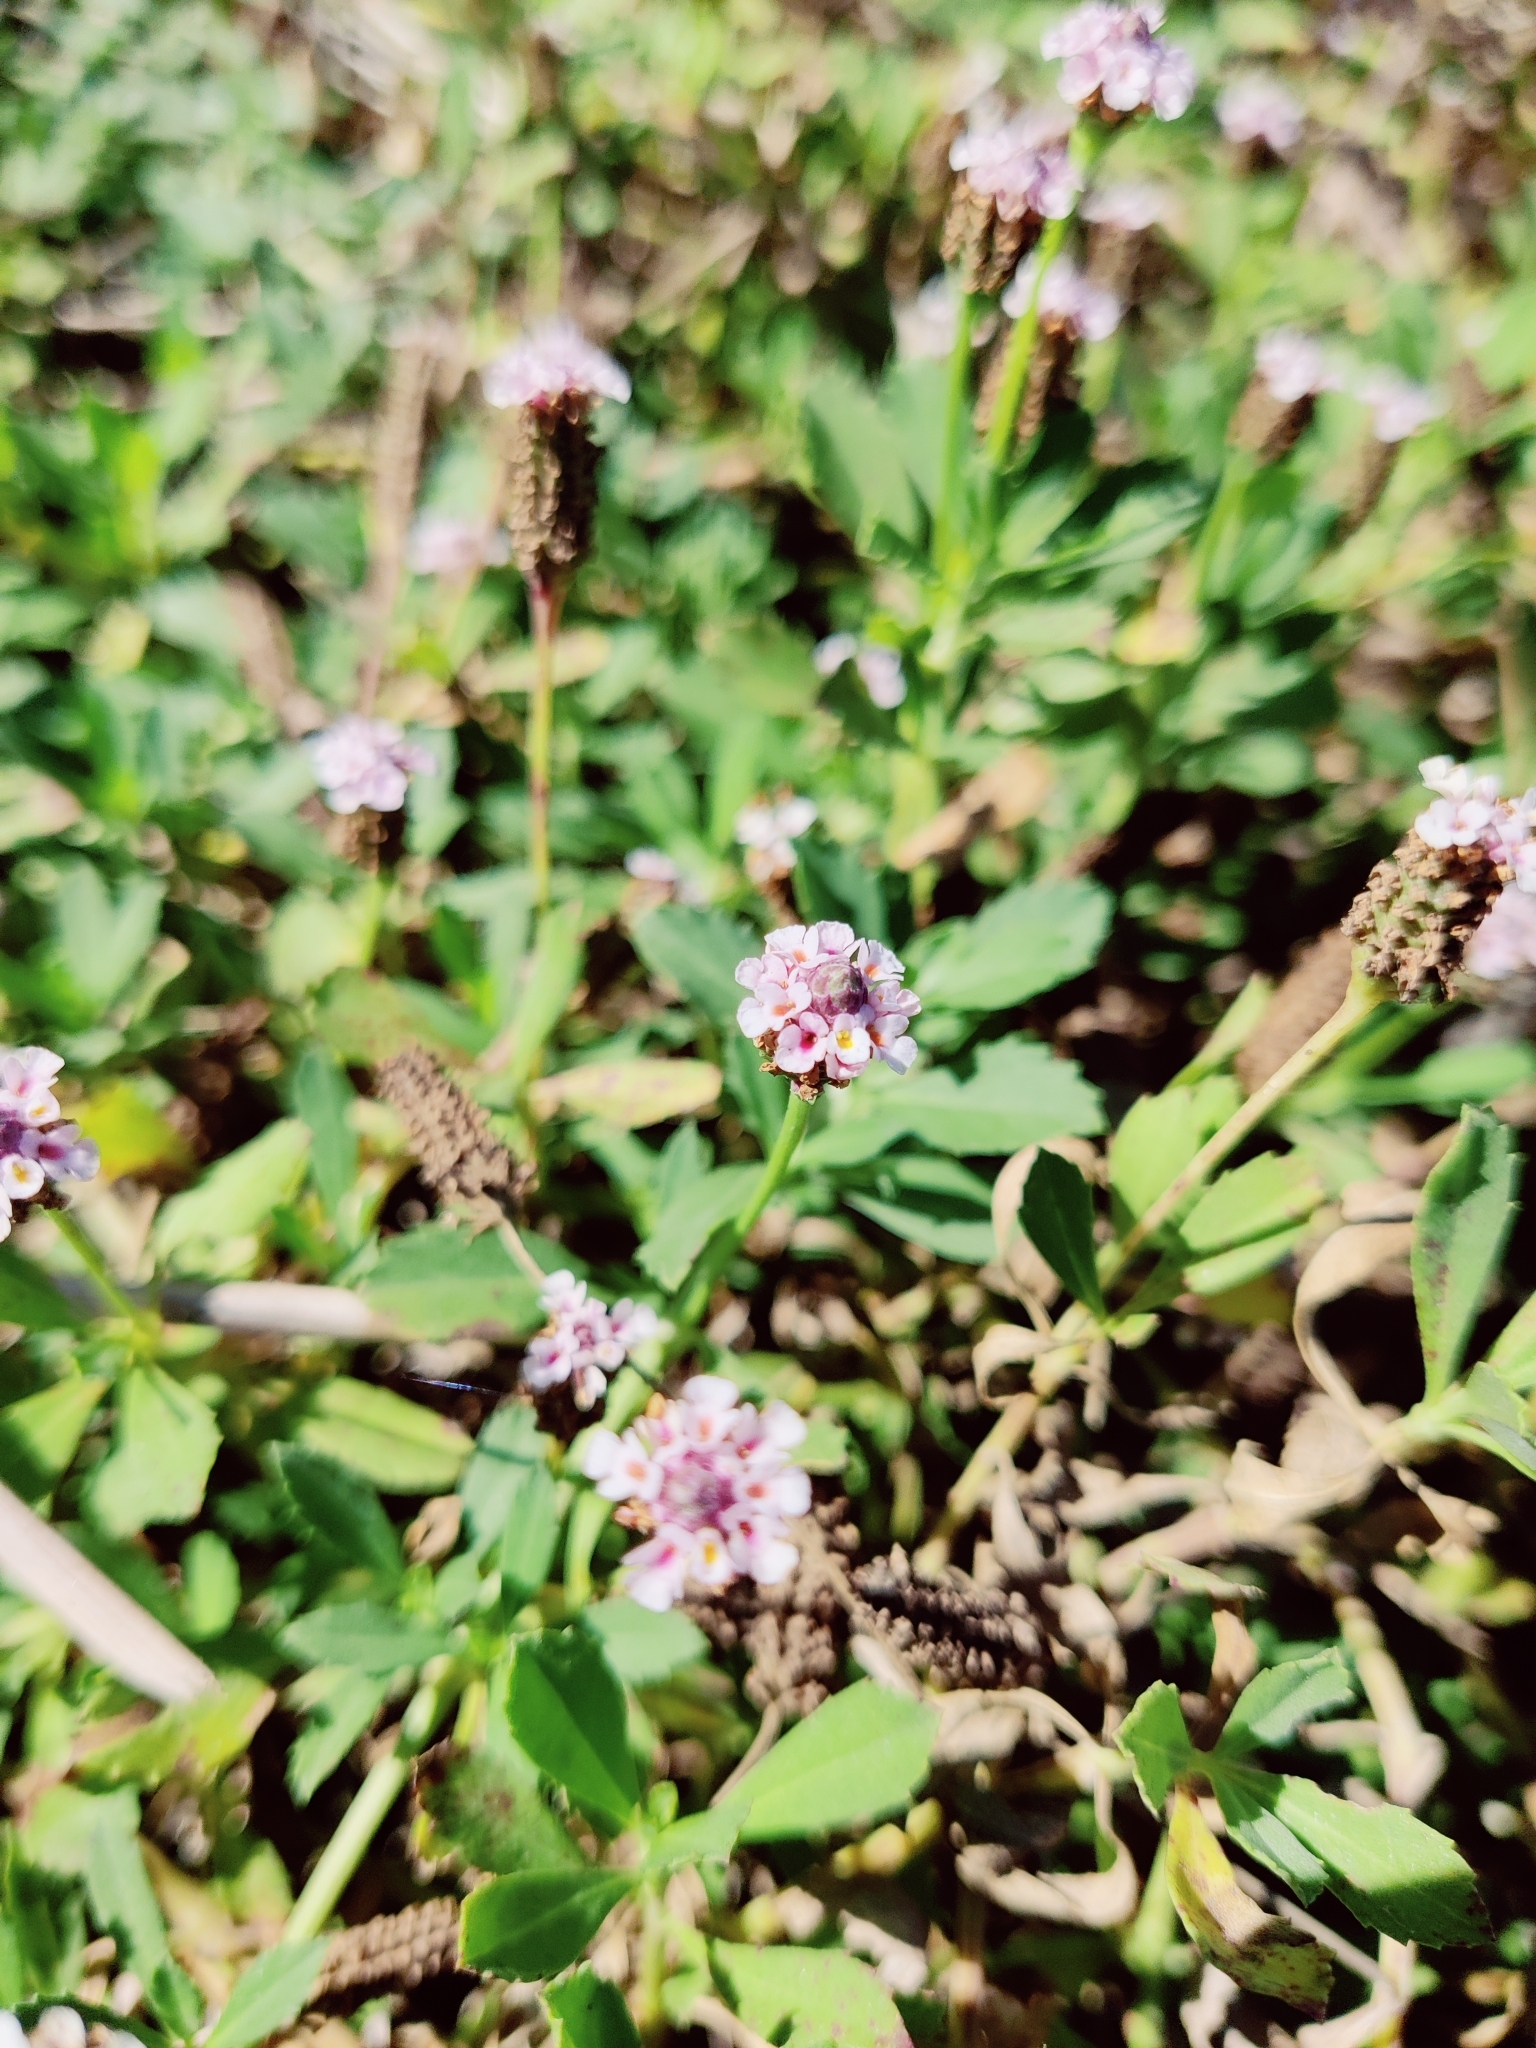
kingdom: Plantae
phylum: Tracheophyta
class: Magnoliopsida
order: Lamiales
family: Verbenaceae
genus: Phyla
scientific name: Phyla nodiflora
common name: Frogfruit
